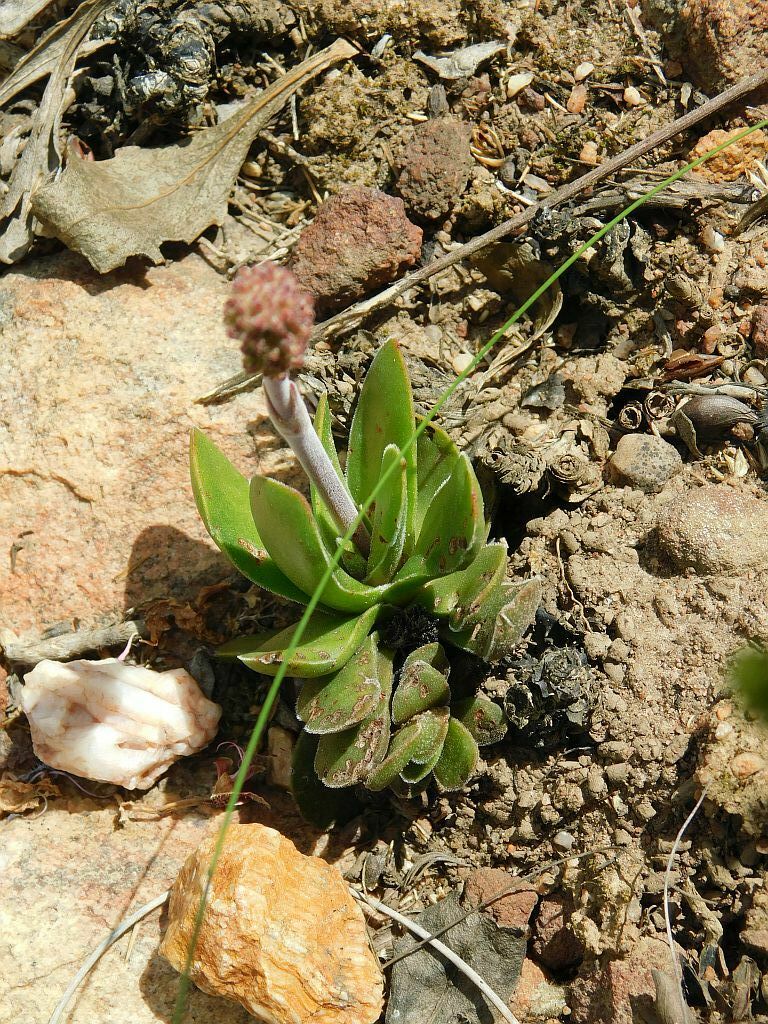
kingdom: Plantae
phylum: Tracheophyta
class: Magnoliopsida
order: Saxifragales
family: Crassulaceae
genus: Crassula
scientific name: Crassula nudicaulis
